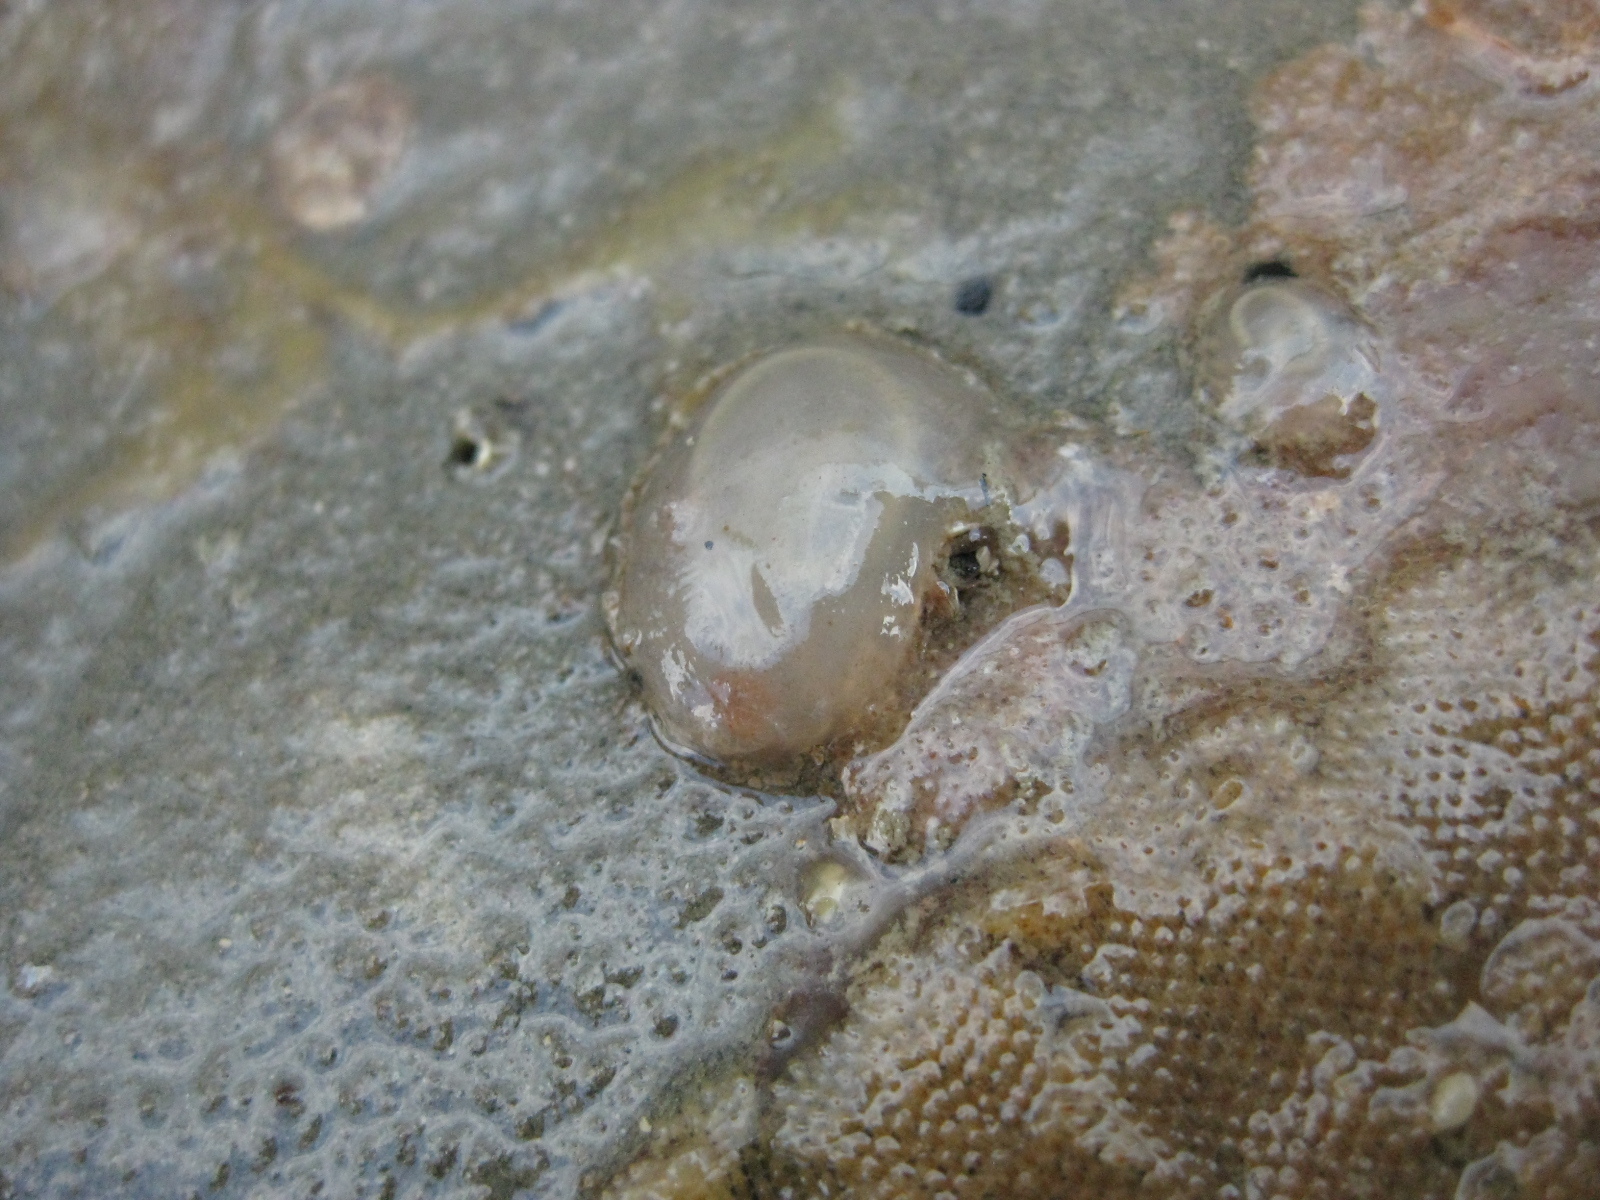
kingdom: Animalia
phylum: Chordata
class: Ascidiacea
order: Phlebobranchia
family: Corellidae
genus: Corella
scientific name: Corella eumyota
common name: Orange-tipped sea squirt
